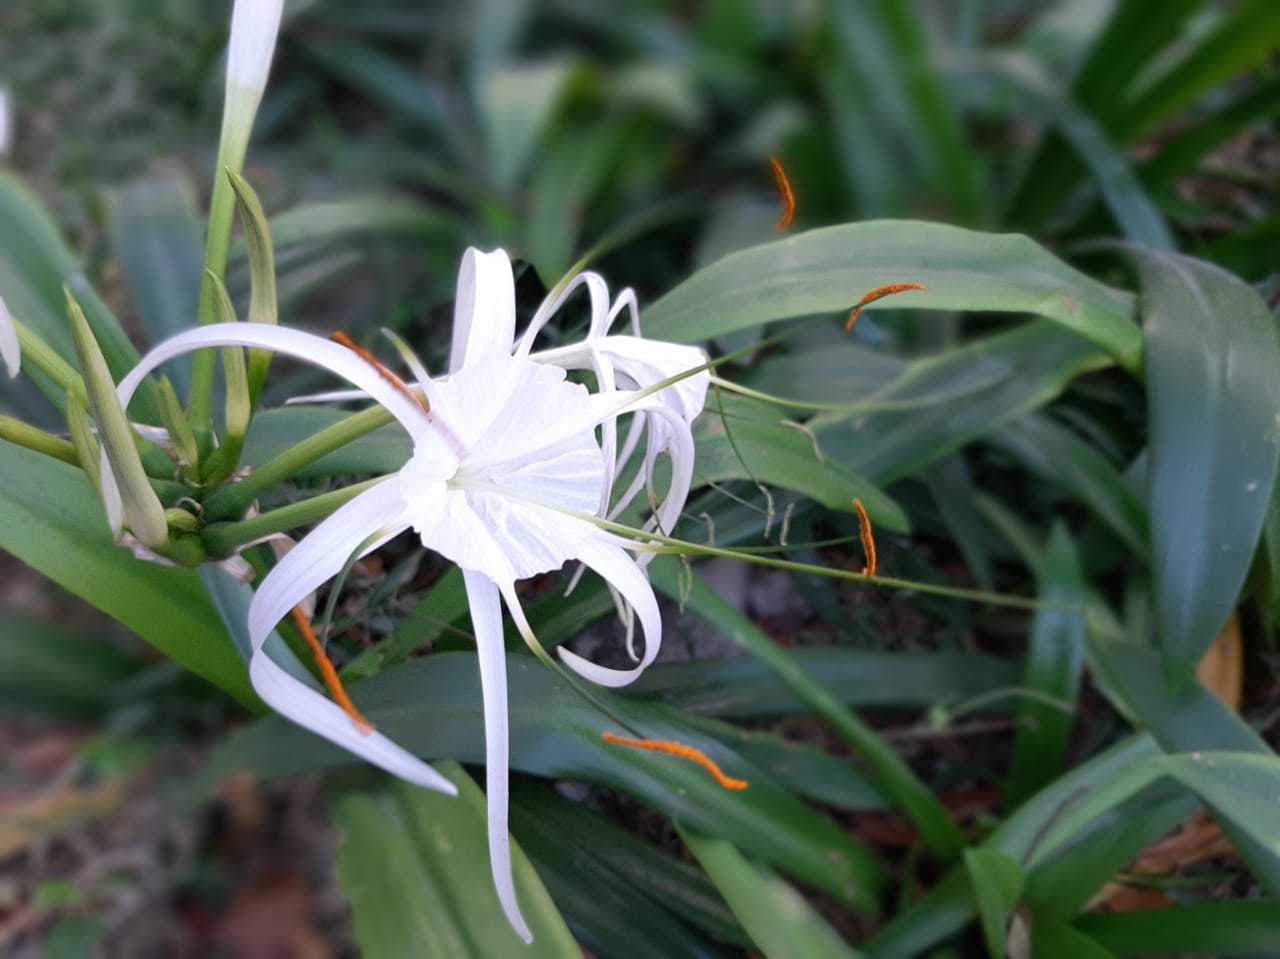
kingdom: Plantae
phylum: Tracheophyta
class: Liliopsida
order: Asparagales
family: Amaryllidaceae
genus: Hymenocallis
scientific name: Hymenocallis littoralis
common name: Beach spiderlily
